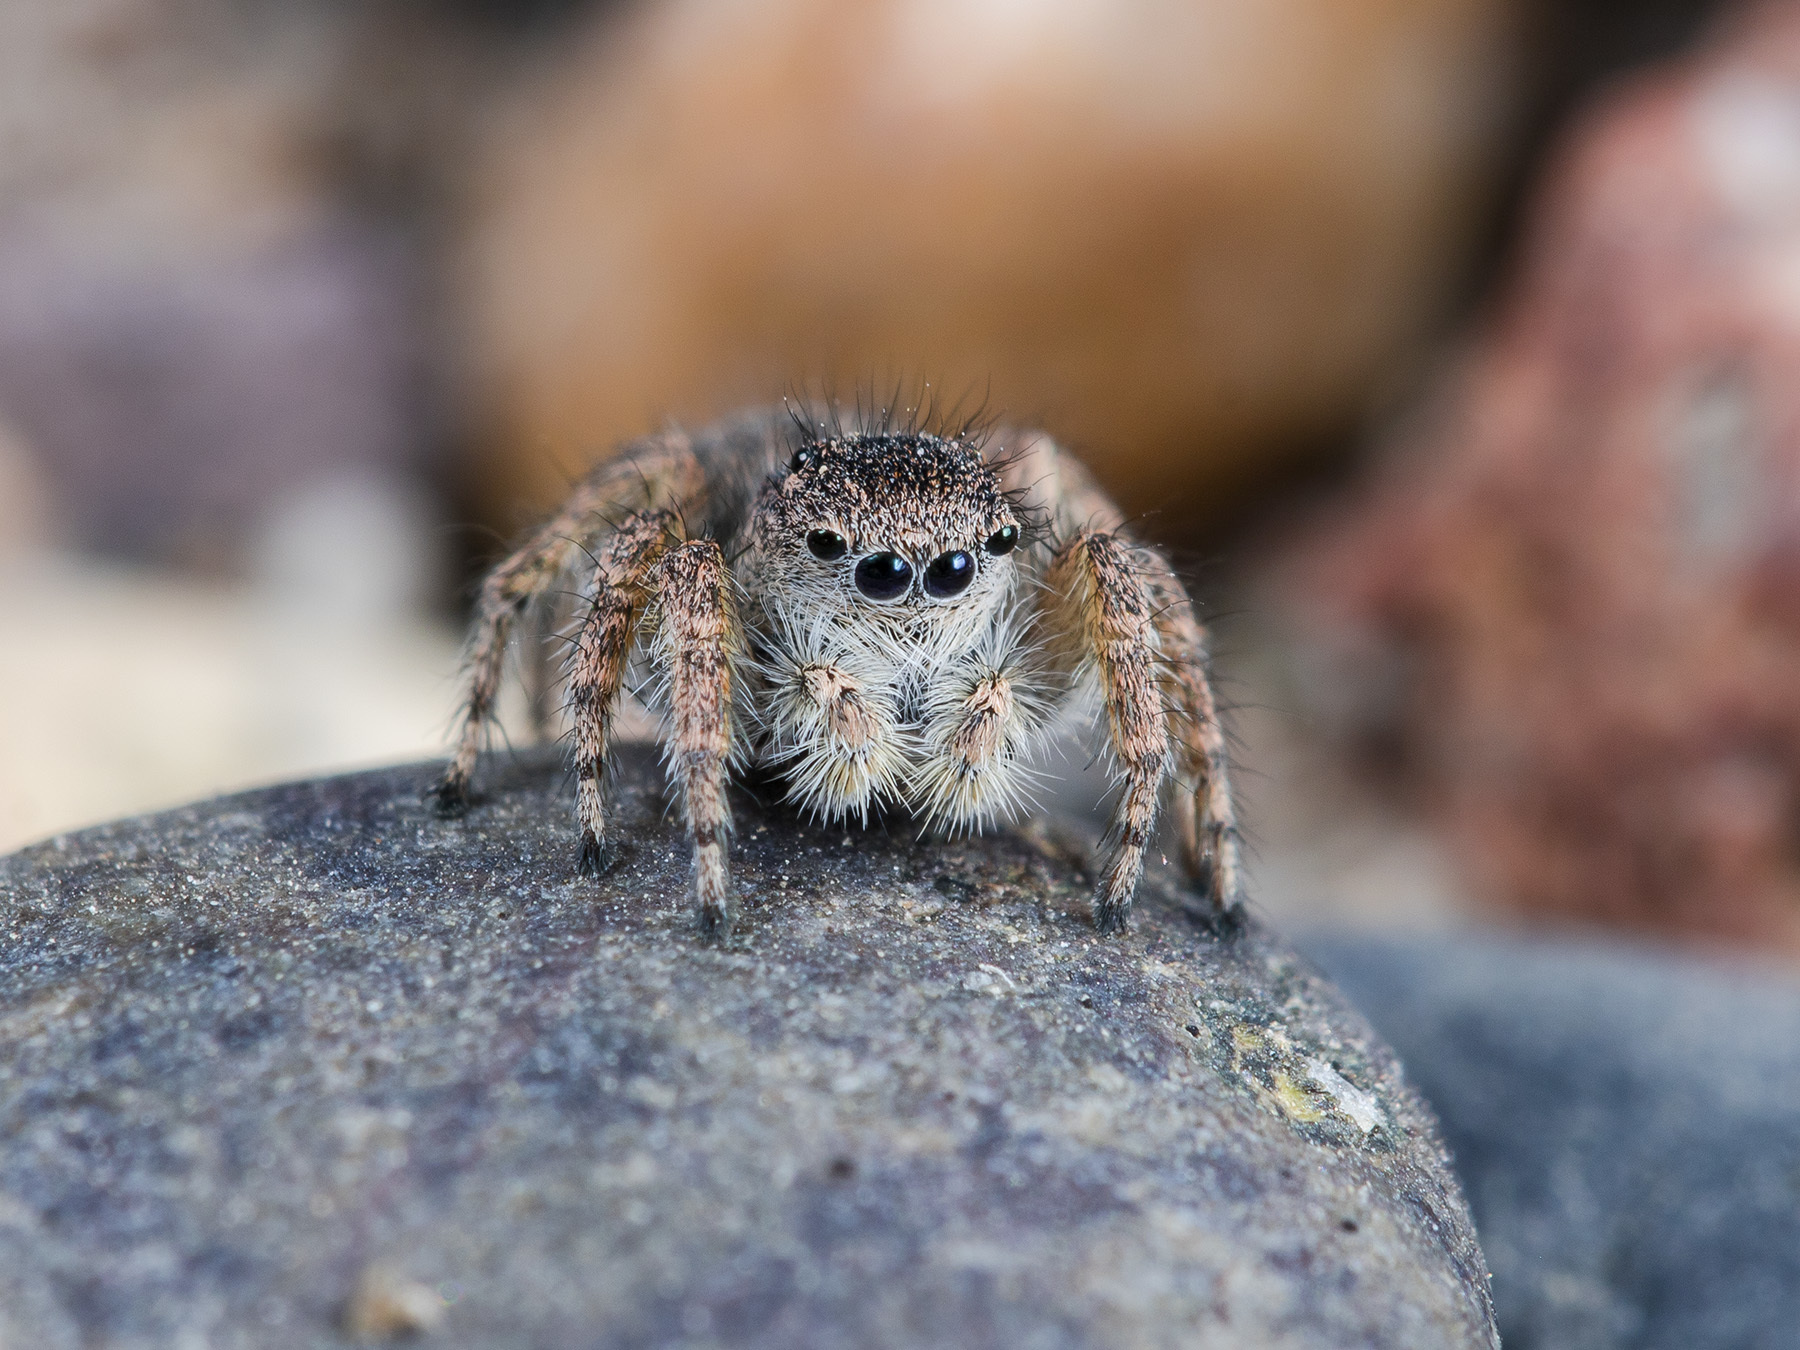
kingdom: Animalia
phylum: Arthropoda
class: Arachnida
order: Araneae
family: Salticidae
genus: Aelurillus
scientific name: Aelurillus dubatolovi
